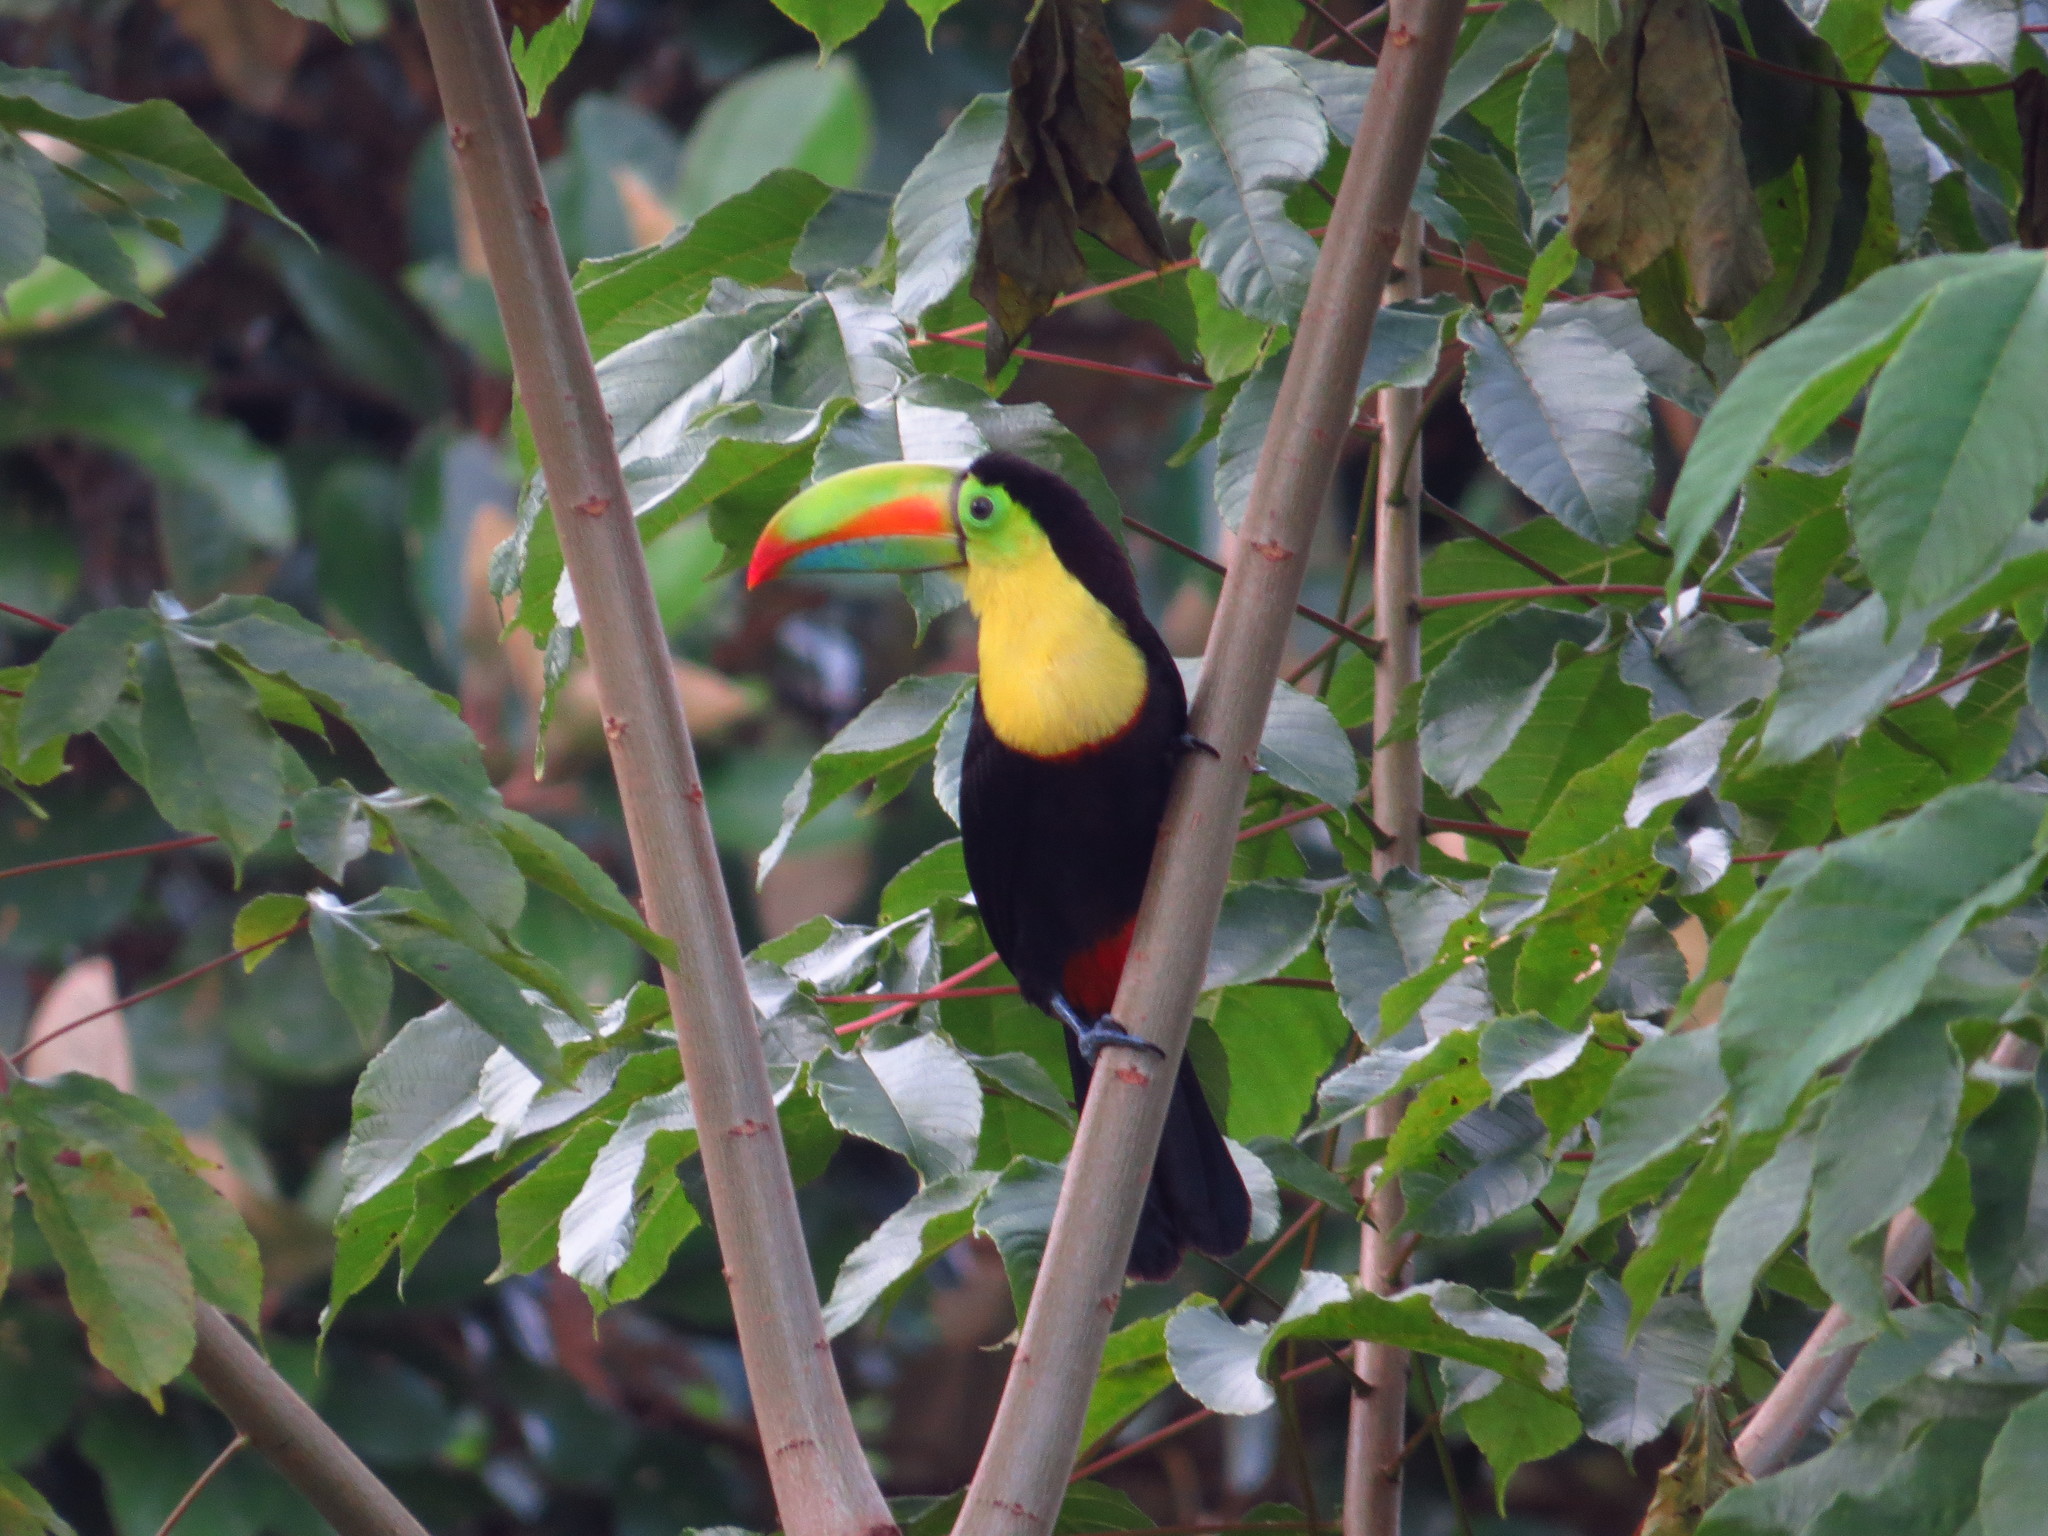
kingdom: Animalia
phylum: Chordata
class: Aves
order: Piciformes
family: Ramphastidae
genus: Ramphastos
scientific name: Ramphastos sulfuratus
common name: Keel-billed toucan
